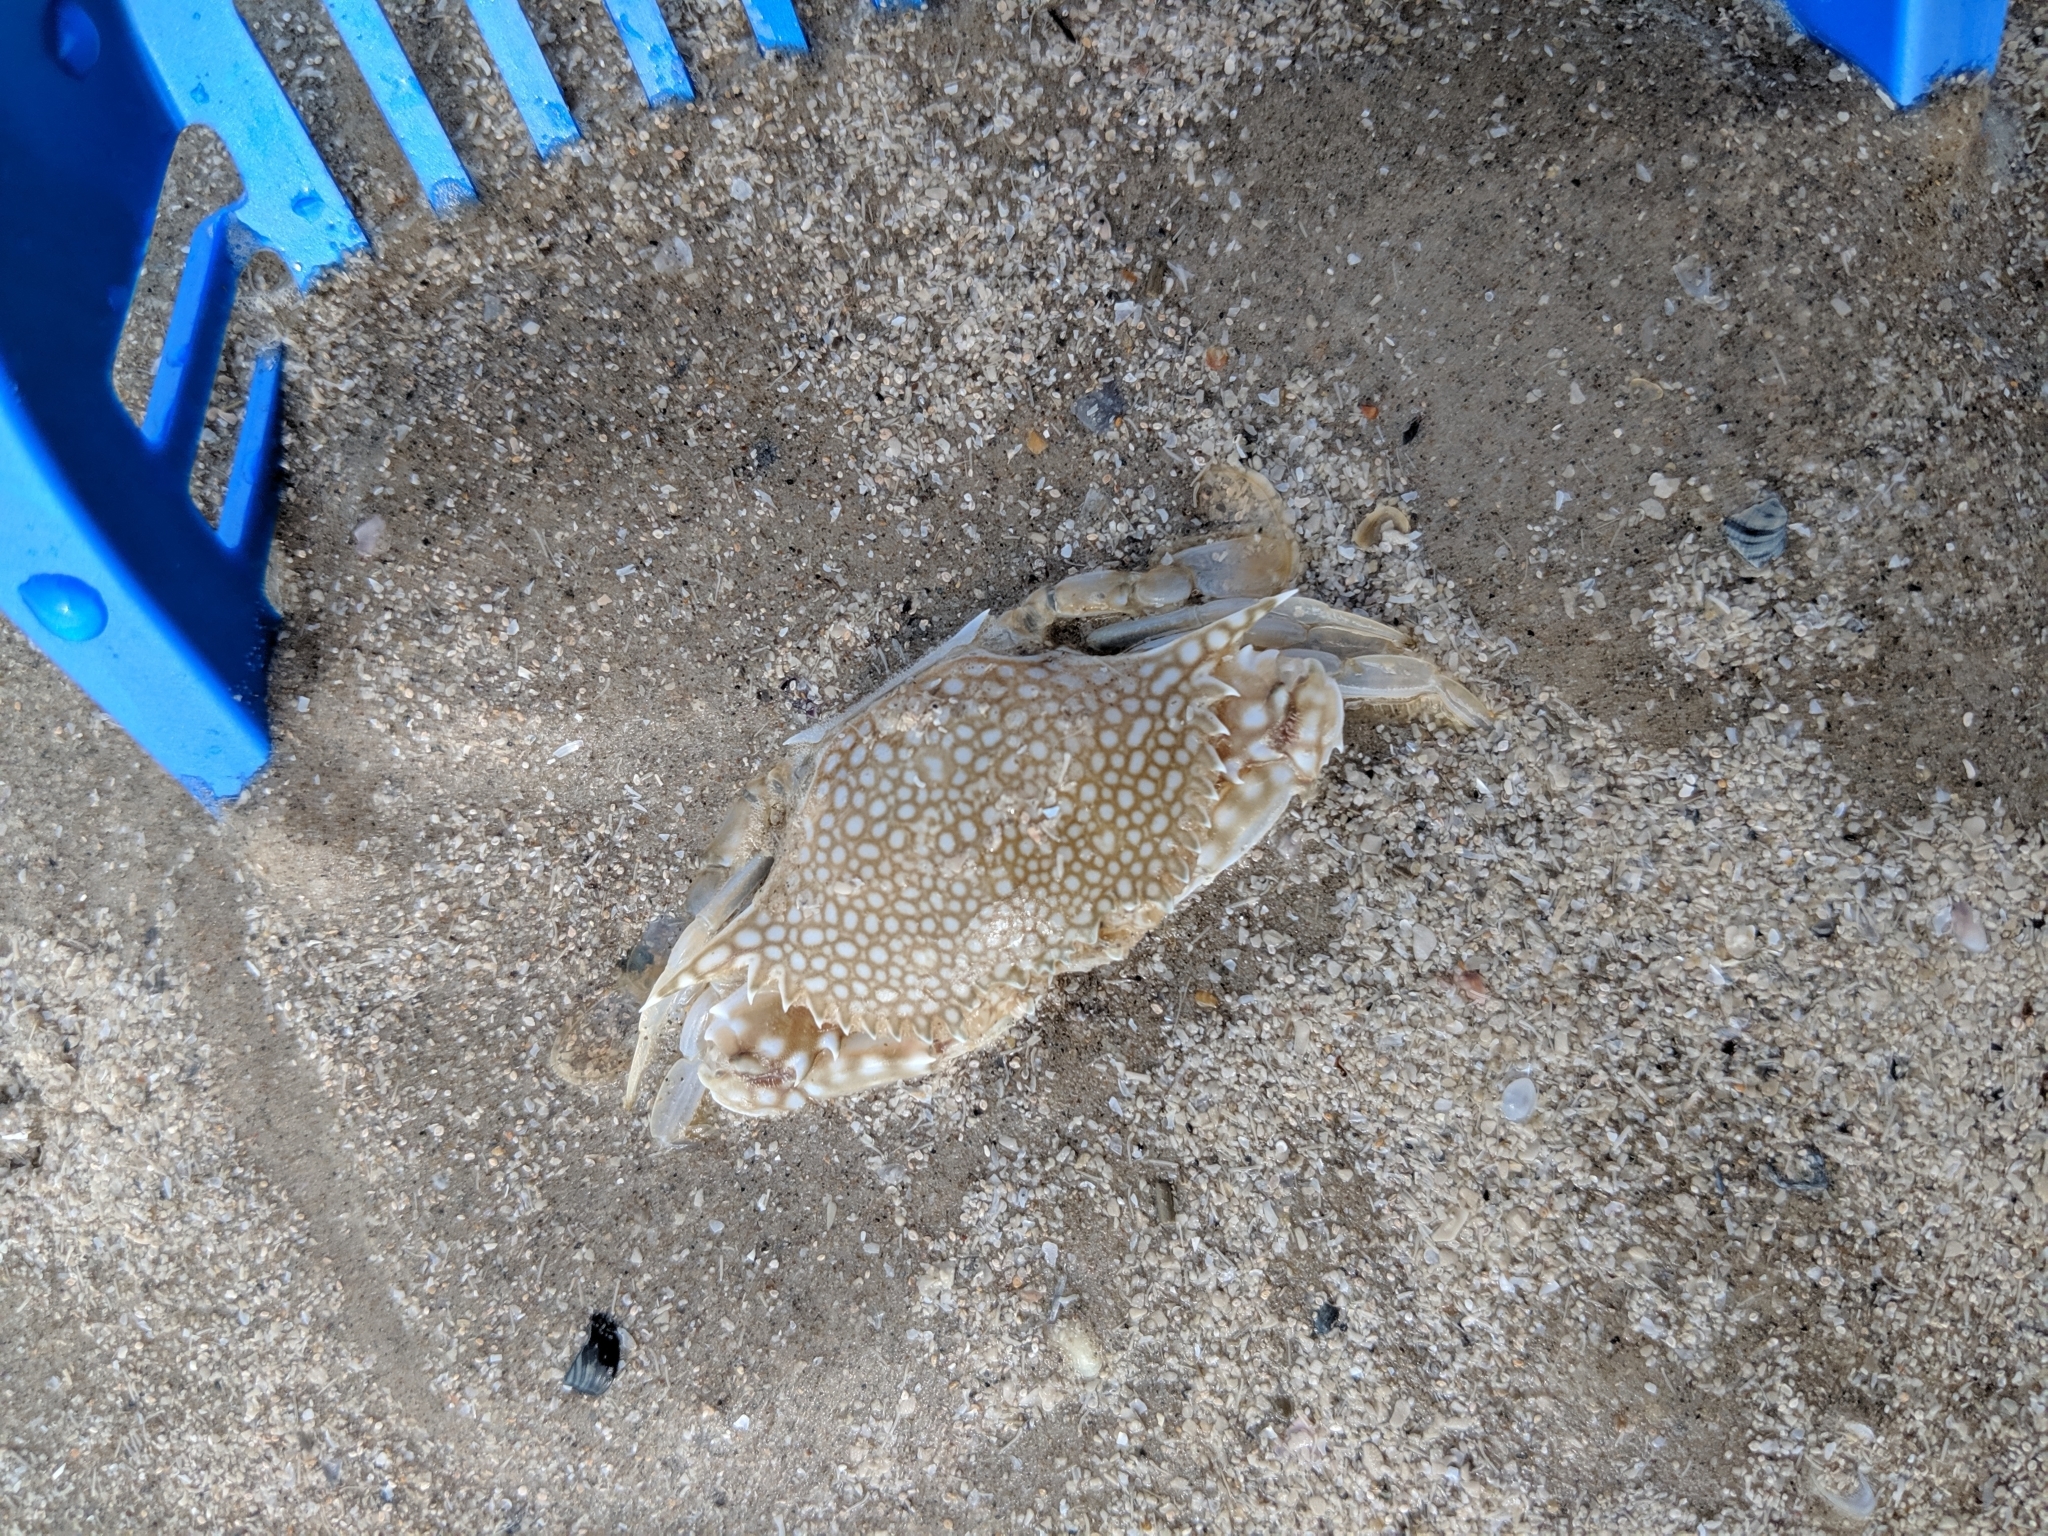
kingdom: Animalia
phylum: Arthropoda
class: Malacostraca
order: Decapoda
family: Portunidae
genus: Arenaeus
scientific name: Arenaeus cribrarius
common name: Speckled crab
